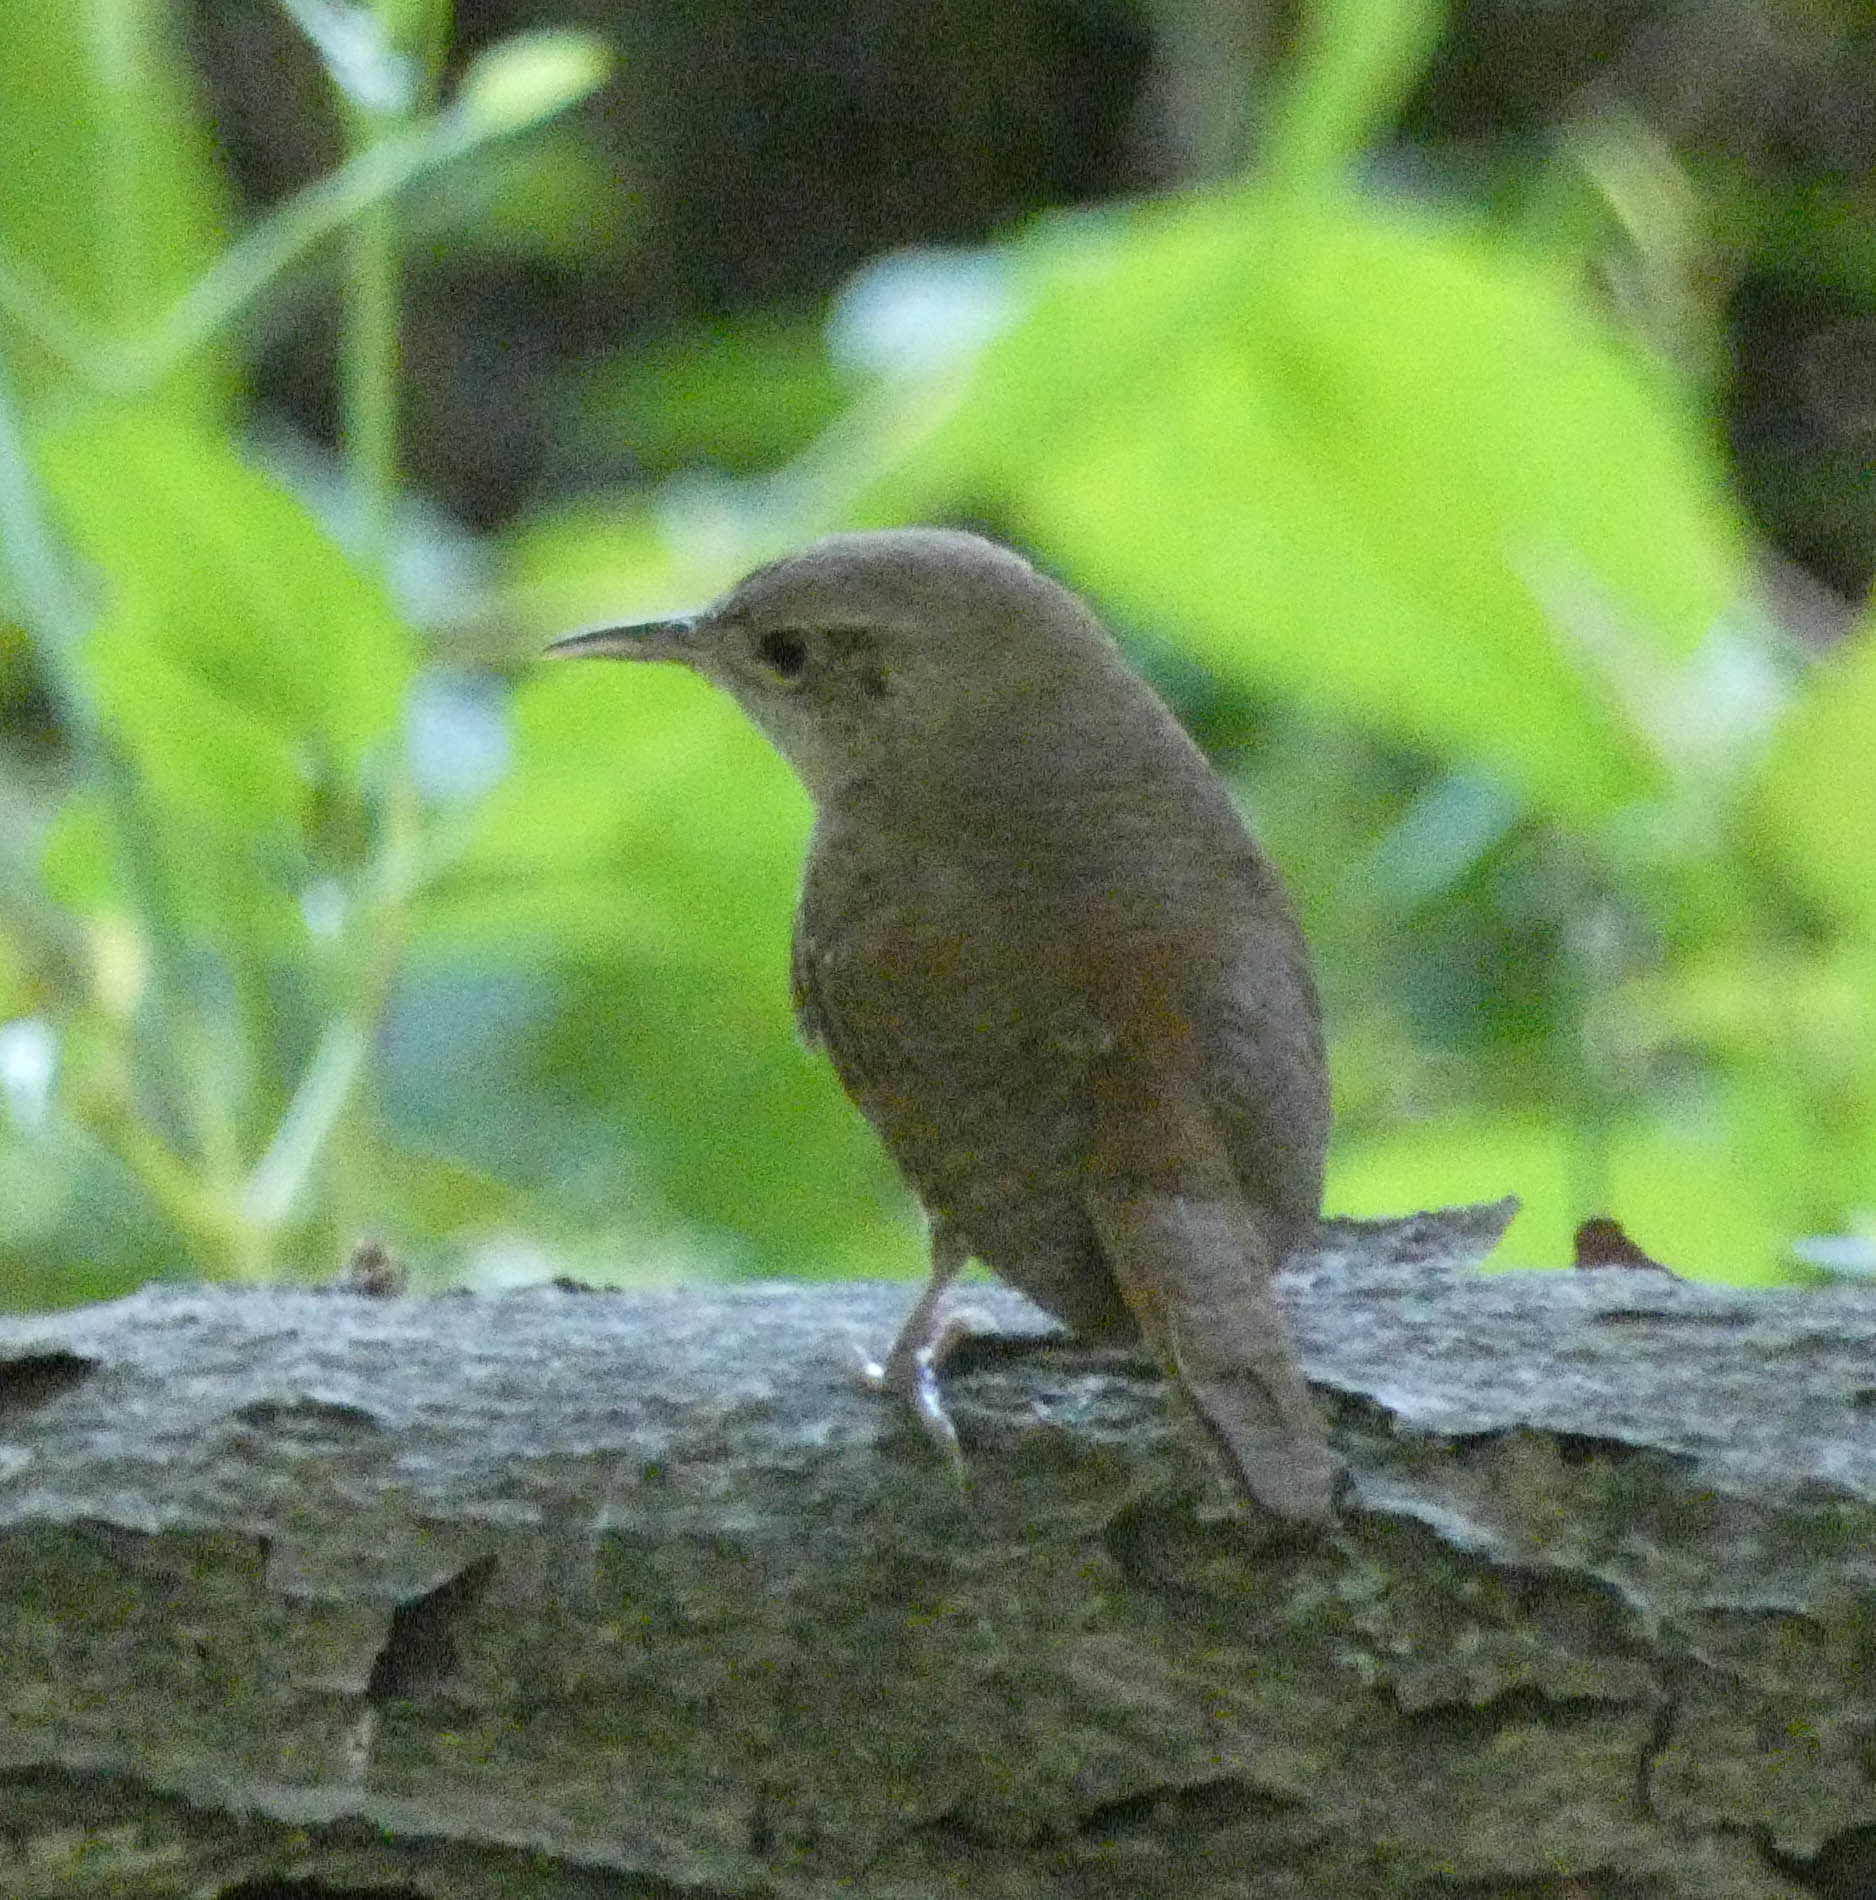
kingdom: Animalia
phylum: Chordata
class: Aves
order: Passeriformes
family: Troglodytidae
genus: Troglodytes
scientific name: Troglodytes aedon
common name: House wren
